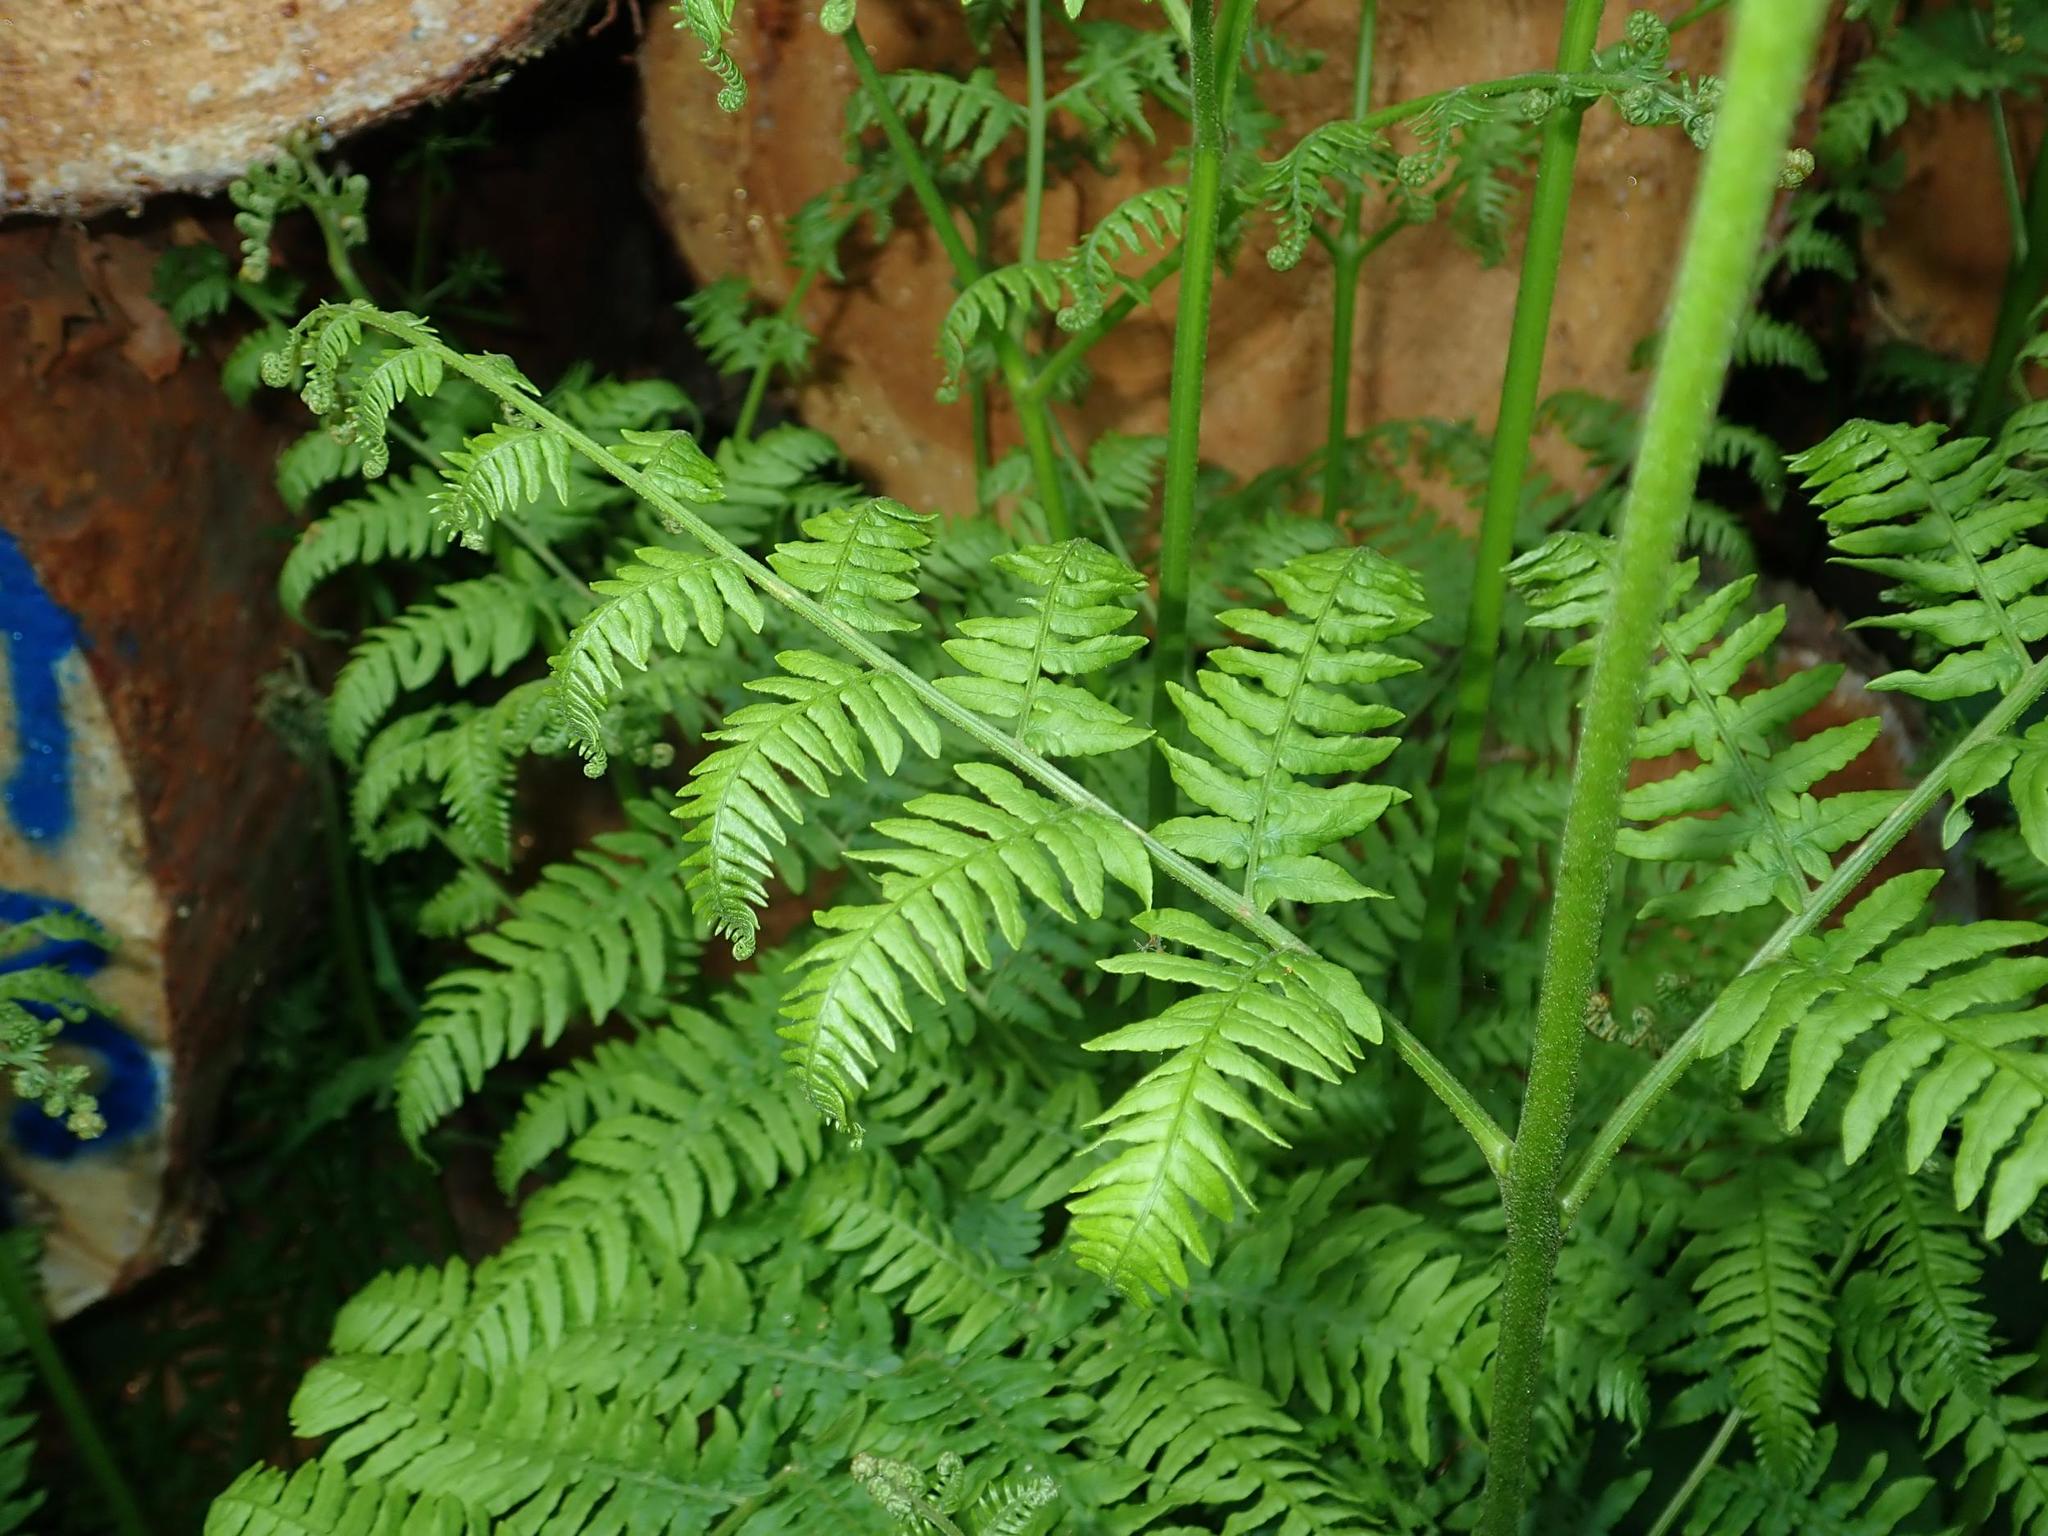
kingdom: Plantae
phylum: Tracheophyta
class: Polypodiopsida
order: Polypodiales
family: Dennstaedtiaceae
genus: Pteridium
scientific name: Pteridium aquilinum
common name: Bracken
